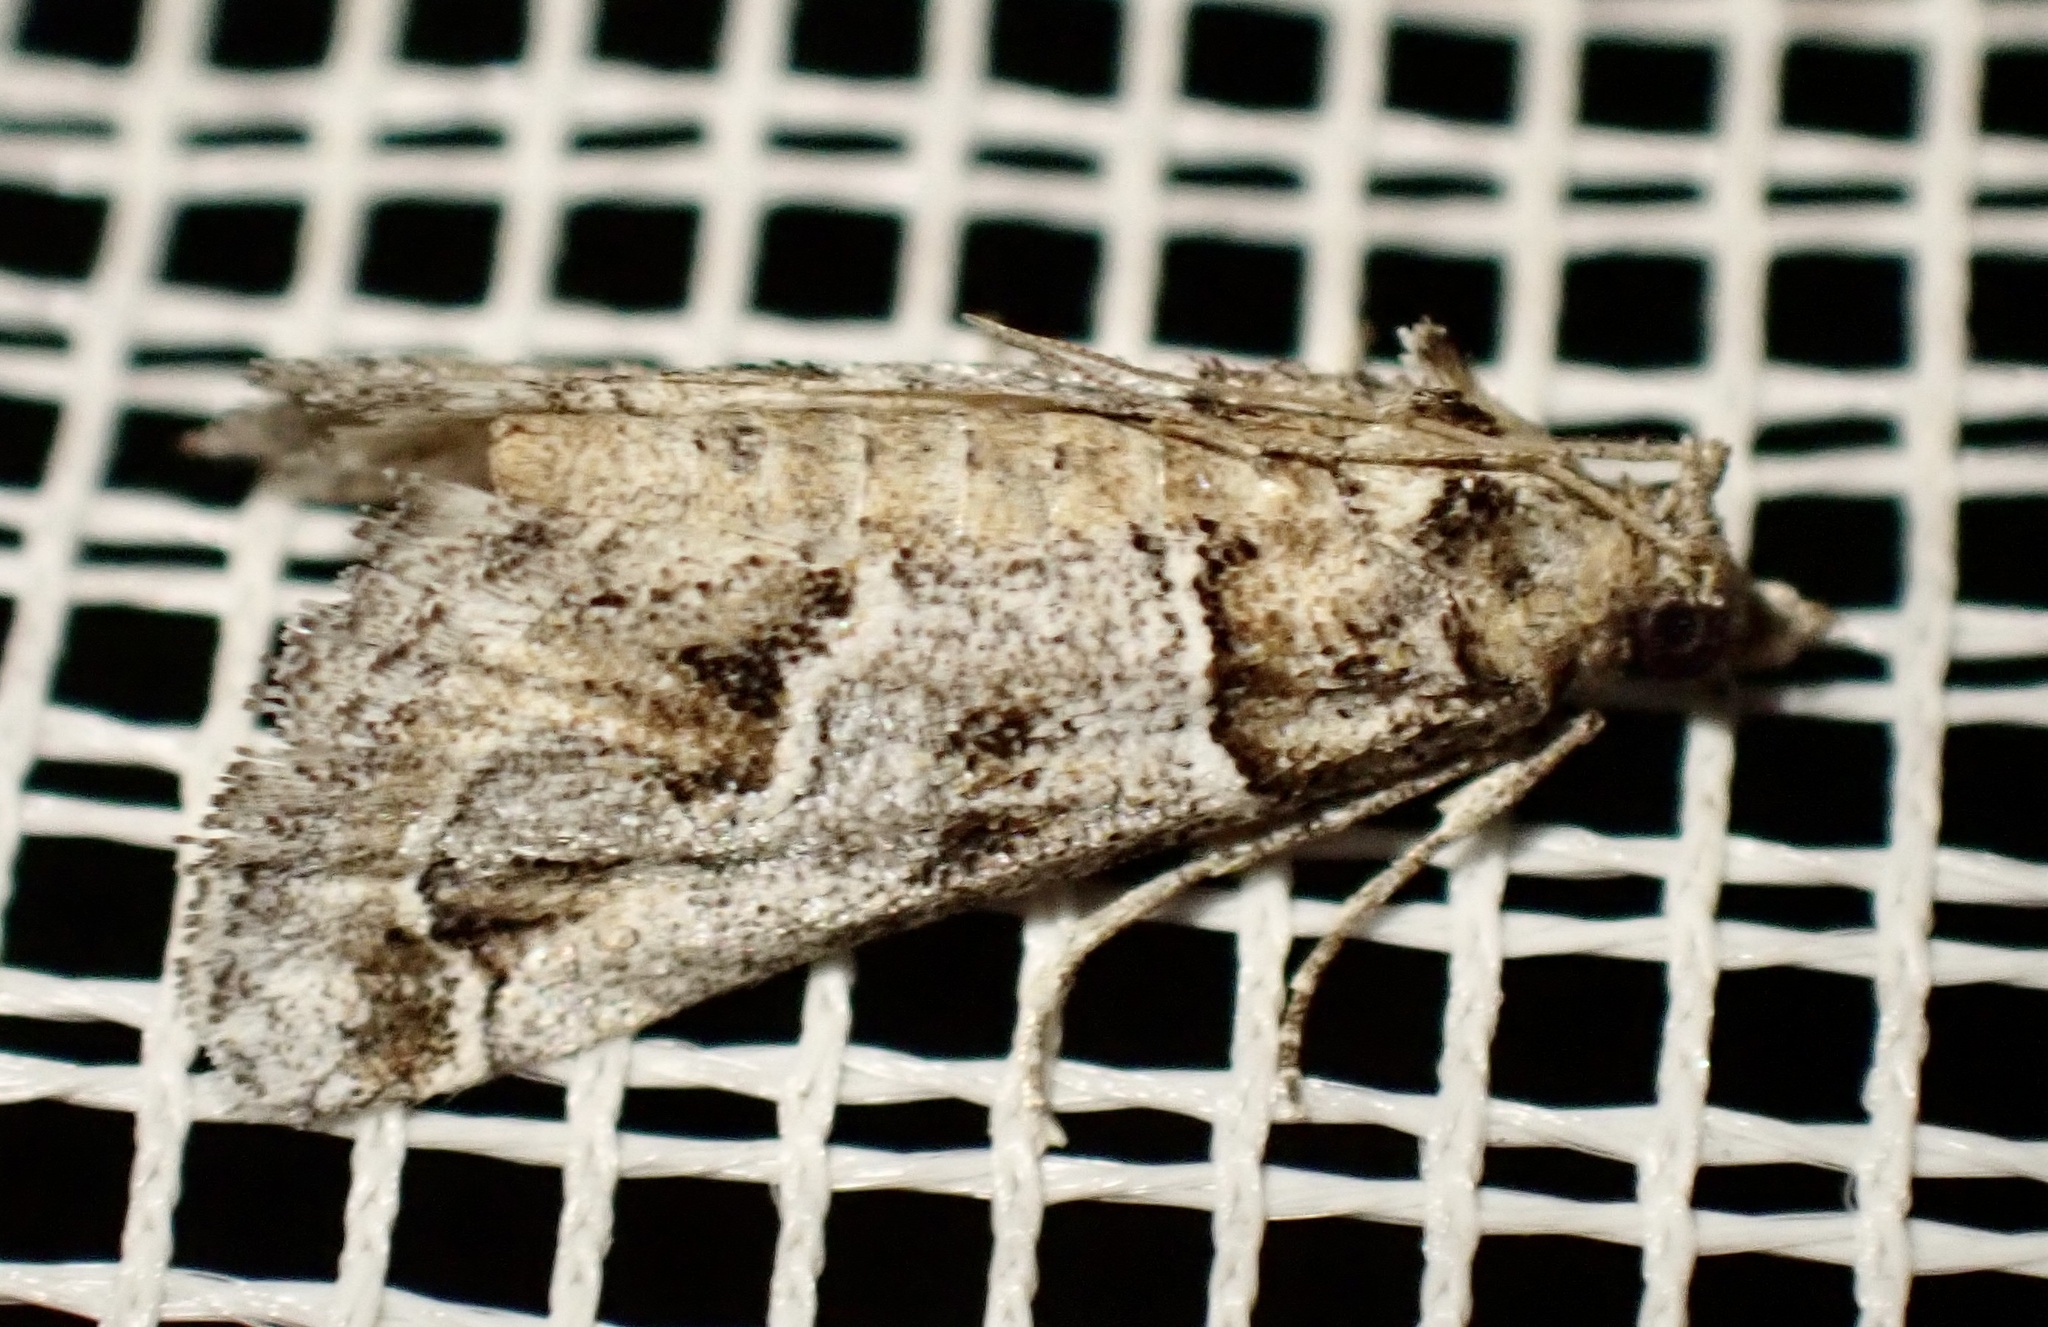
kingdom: Animalia
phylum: Arthropoda
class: Insecta
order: Lepidoptera
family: Pyralidae
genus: Hypotia
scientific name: Hypotia infulalis
